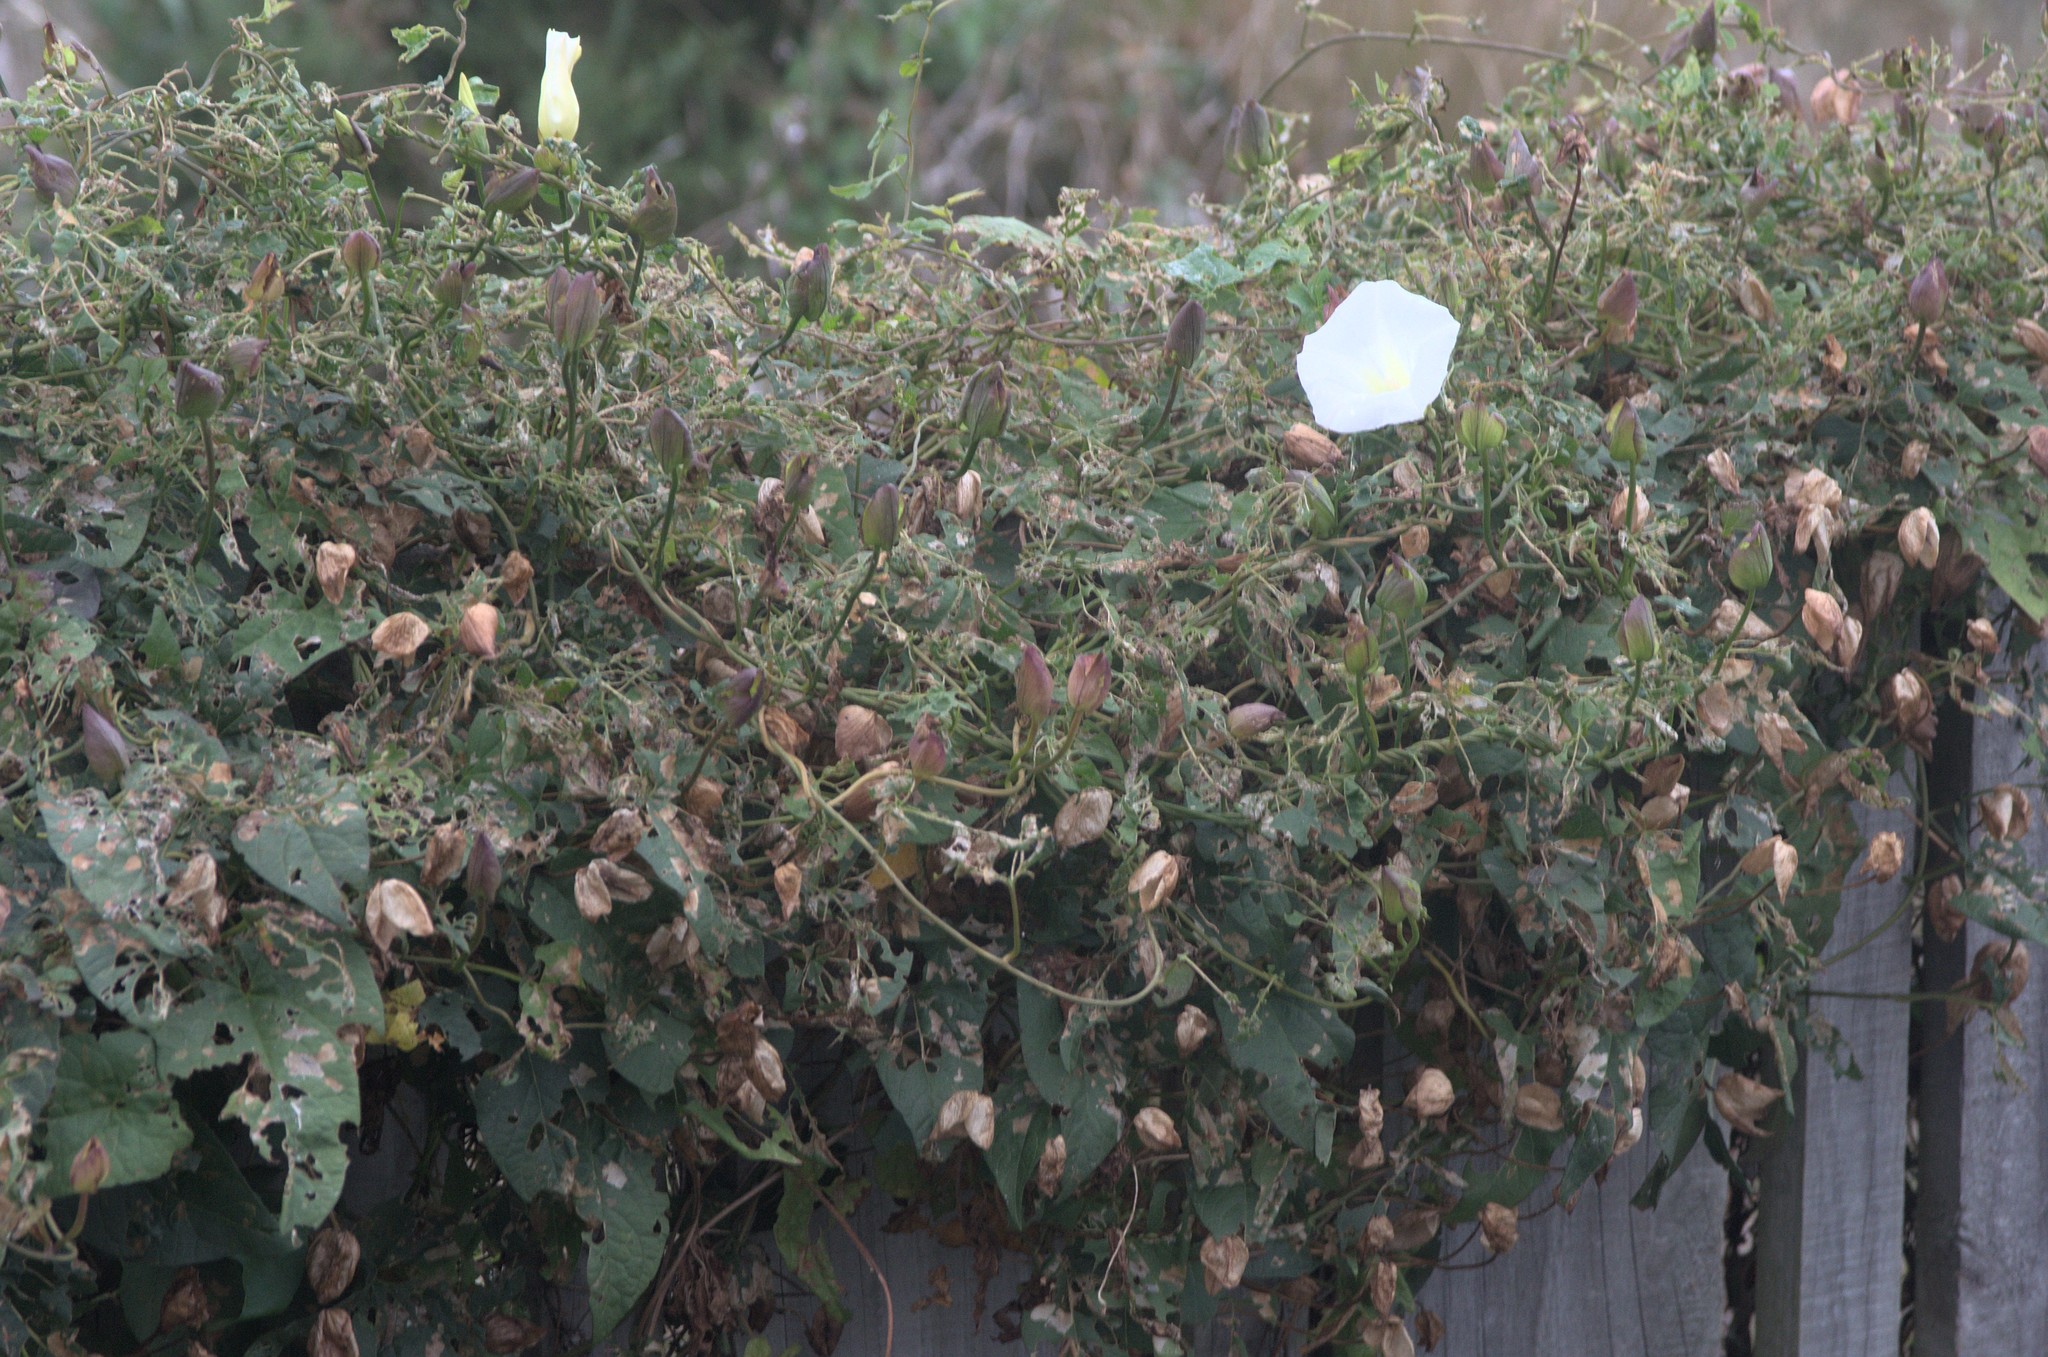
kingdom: Plantae
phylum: Tracheophyta
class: Magnoliopsida
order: Solanales
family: Convolvulaceae
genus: Calystegia
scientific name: Calystegia silvatica
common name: Large bindweed
